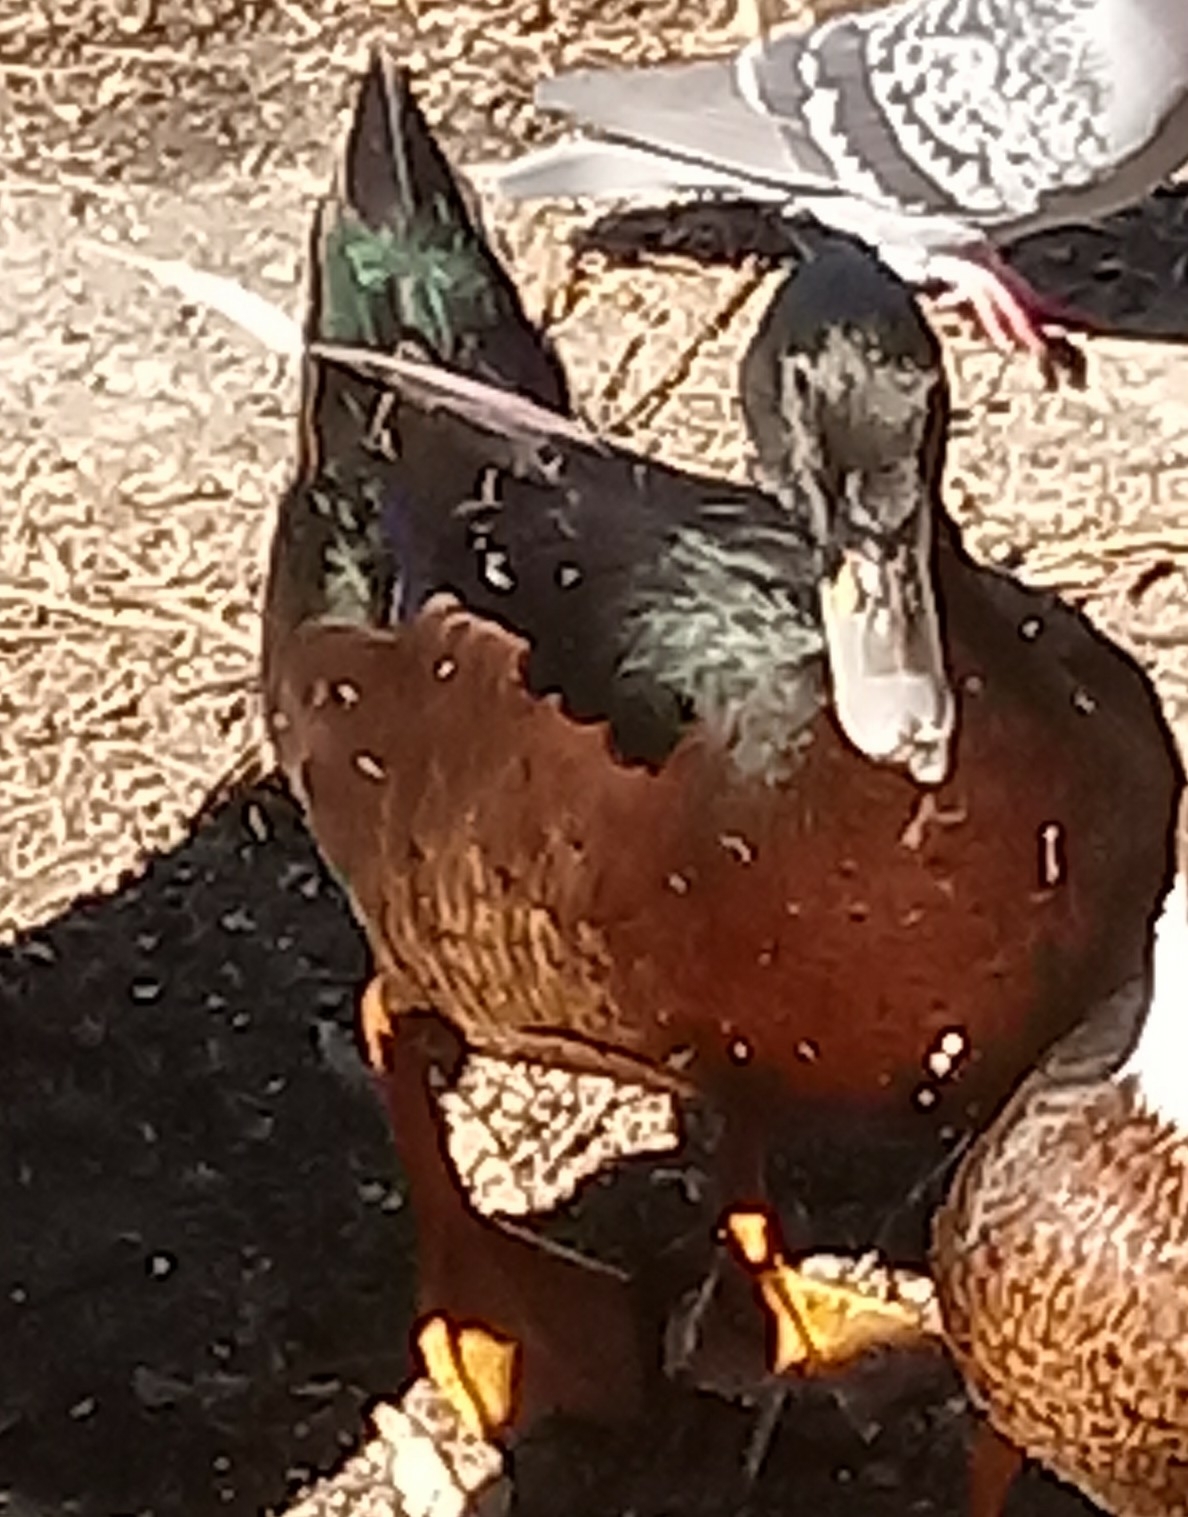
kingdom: Animalia
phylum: Chordata
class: Aves
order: Anseriformes
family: Anatidae
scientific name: Anatidae
